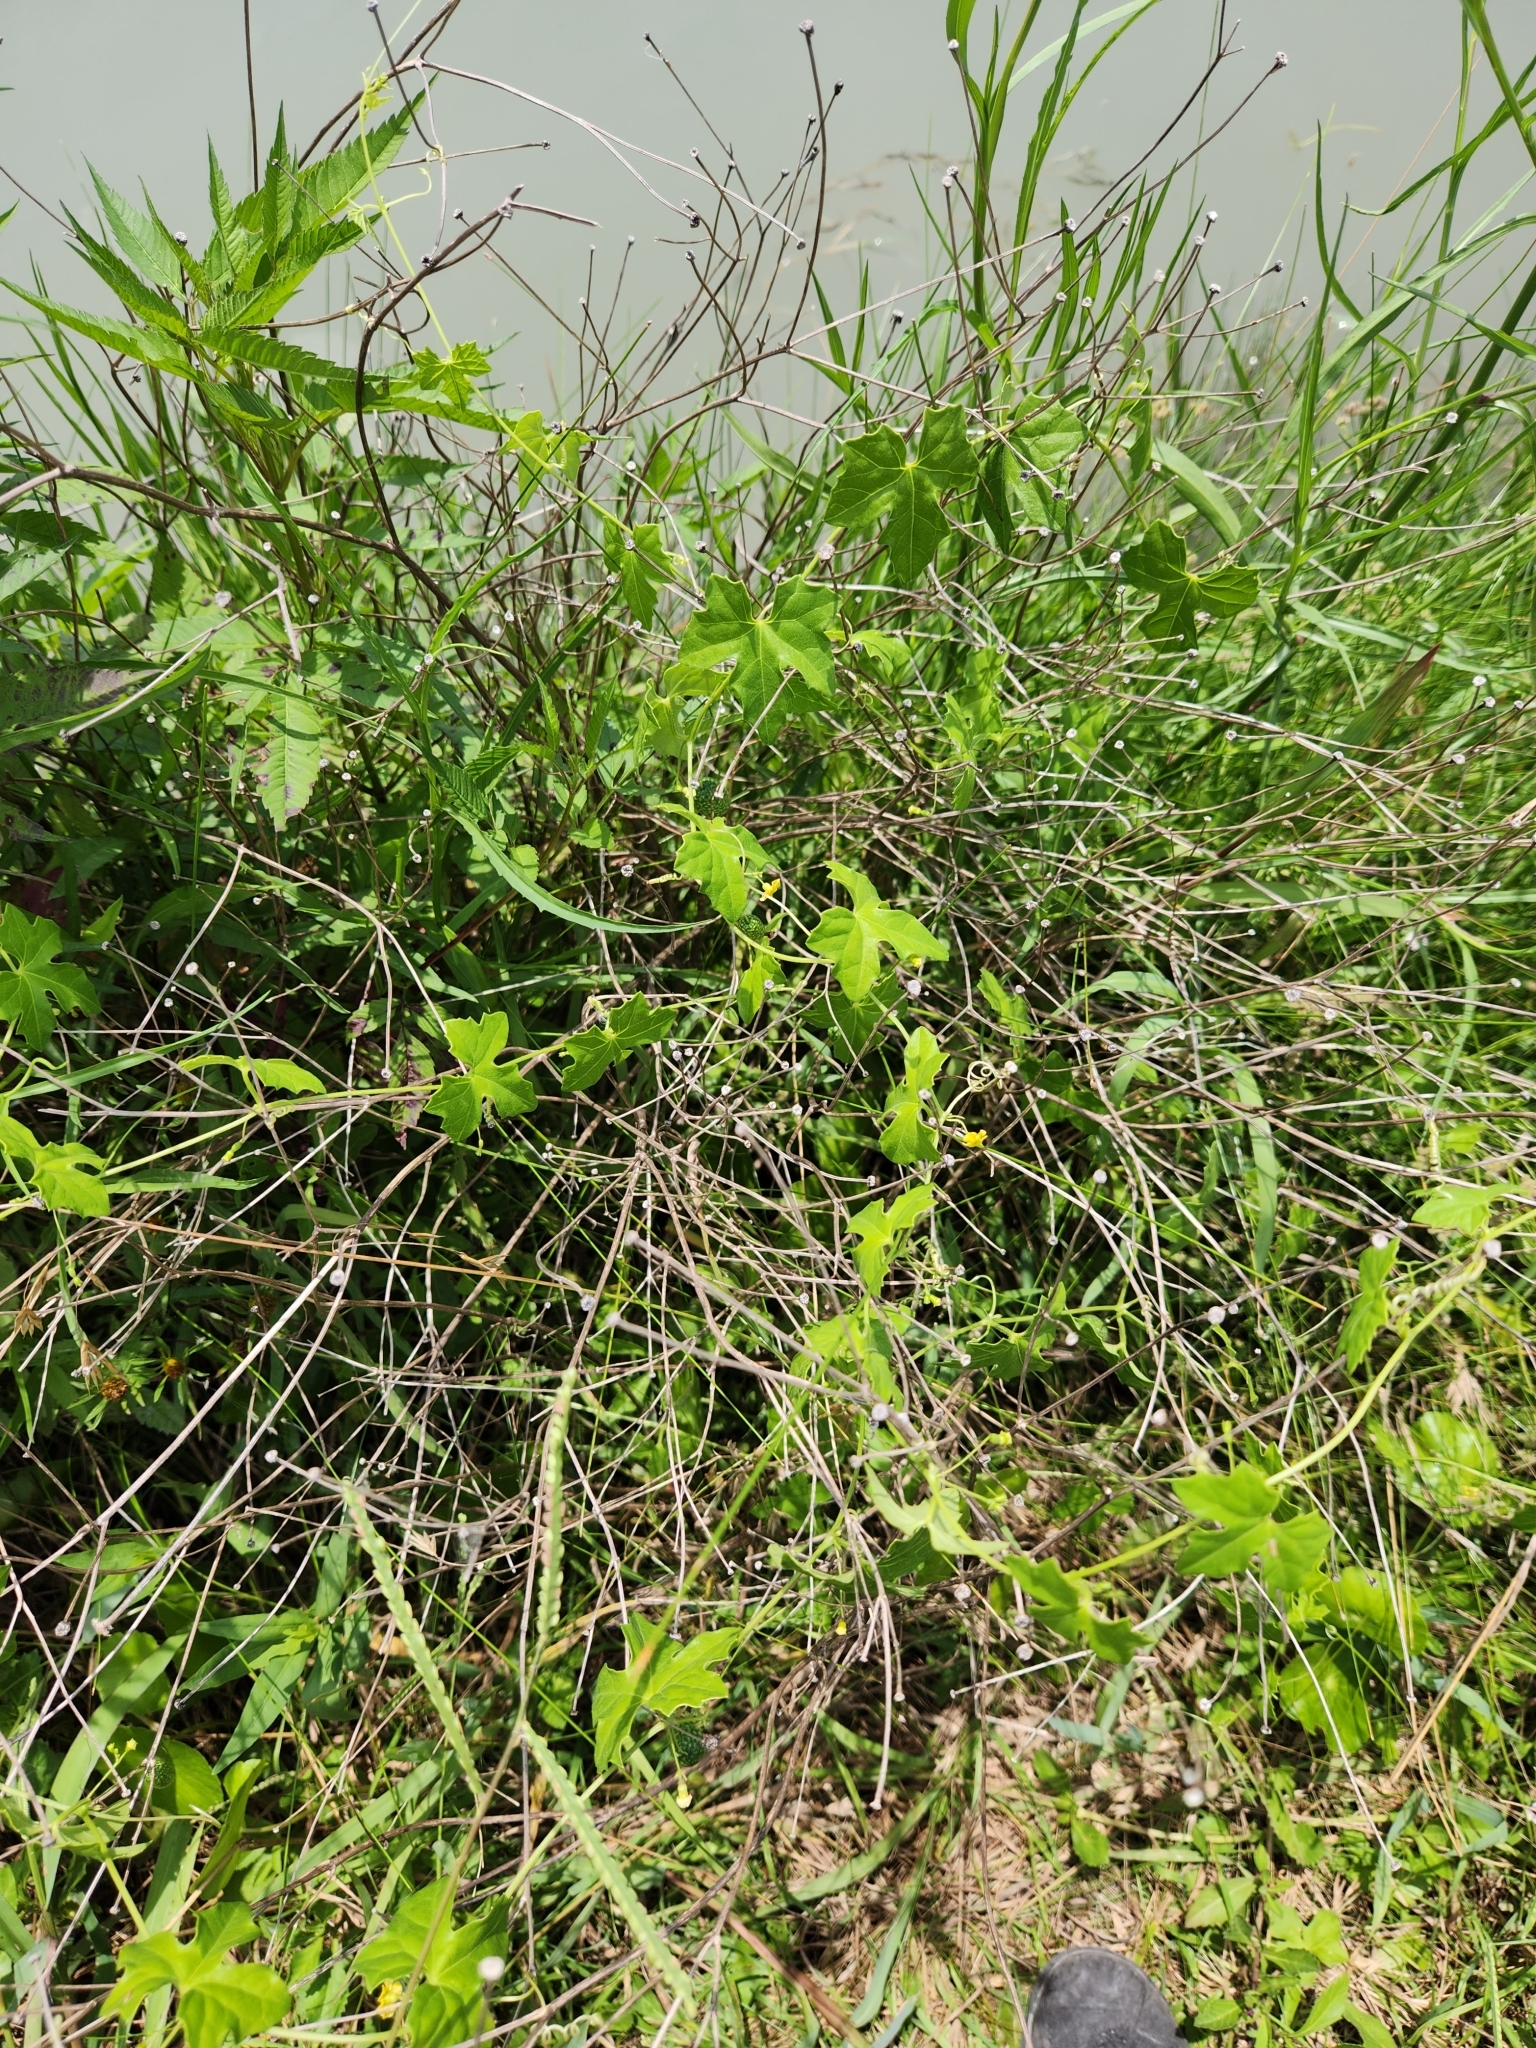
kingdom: Plantae
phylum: Tracheophyta
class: Magnoliopsida
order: Cucurbitales
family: Cucurbitaceae
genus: Melothria
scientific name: Melothria pendula
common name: Creeping-cucumber
